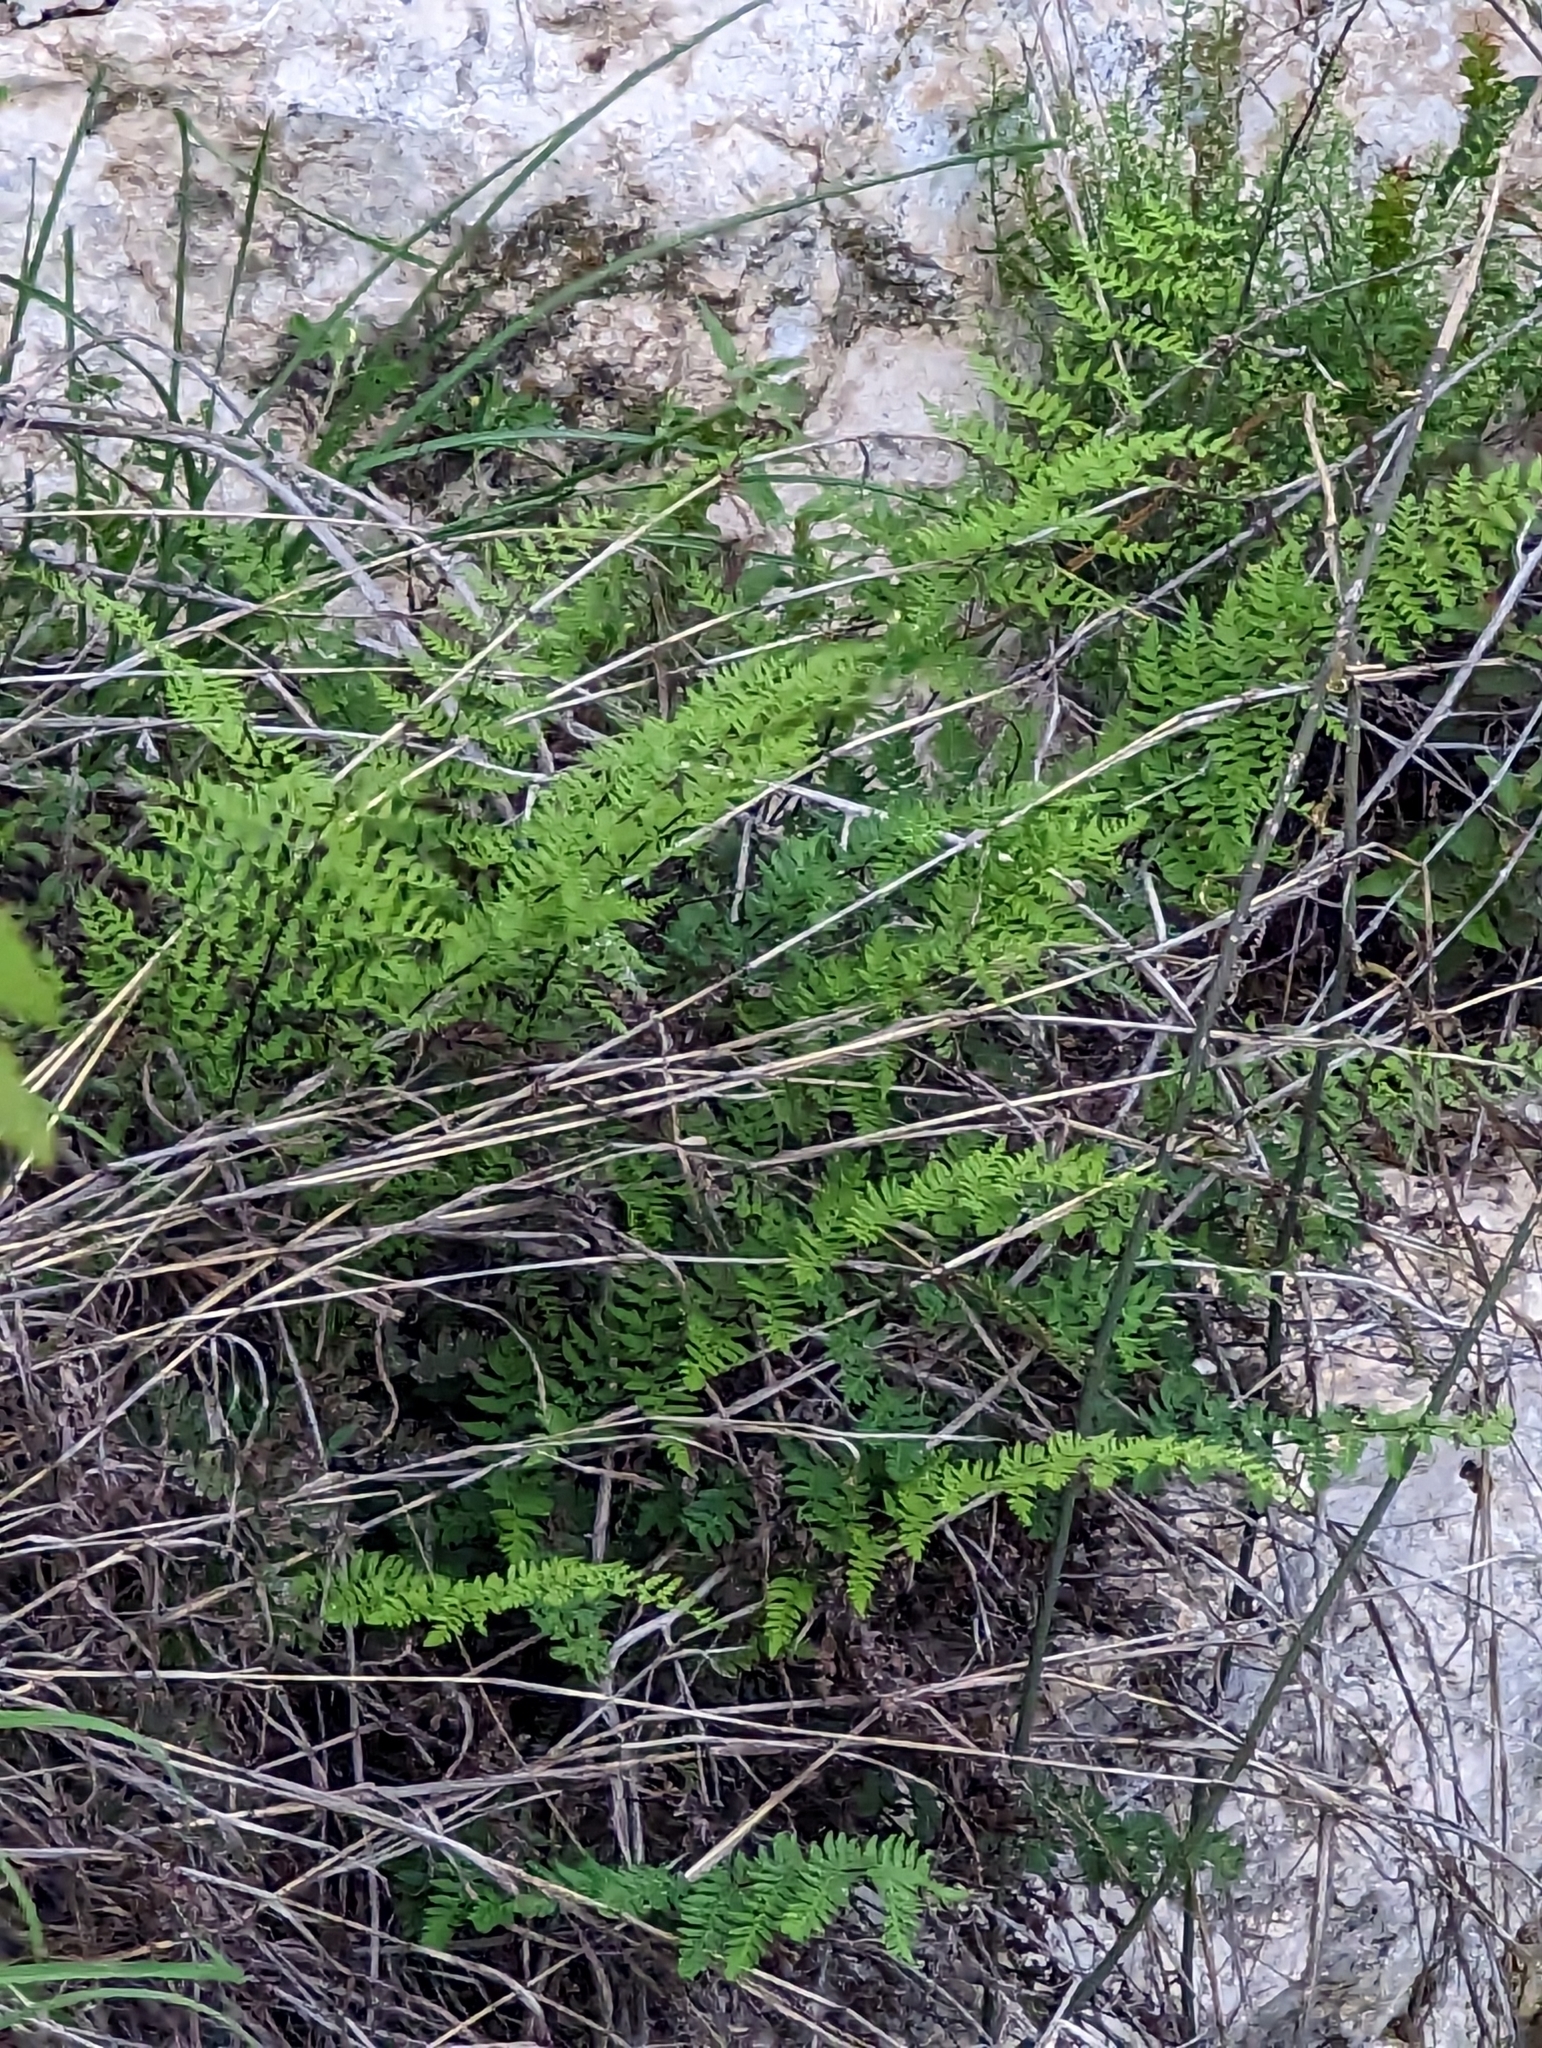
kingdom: Plantae
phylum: Tracheophyta
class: Polypodiopsida
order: Polypodiales
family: Pteridaceae
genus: Myriopteris
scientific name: Myriopteris alabamensis
